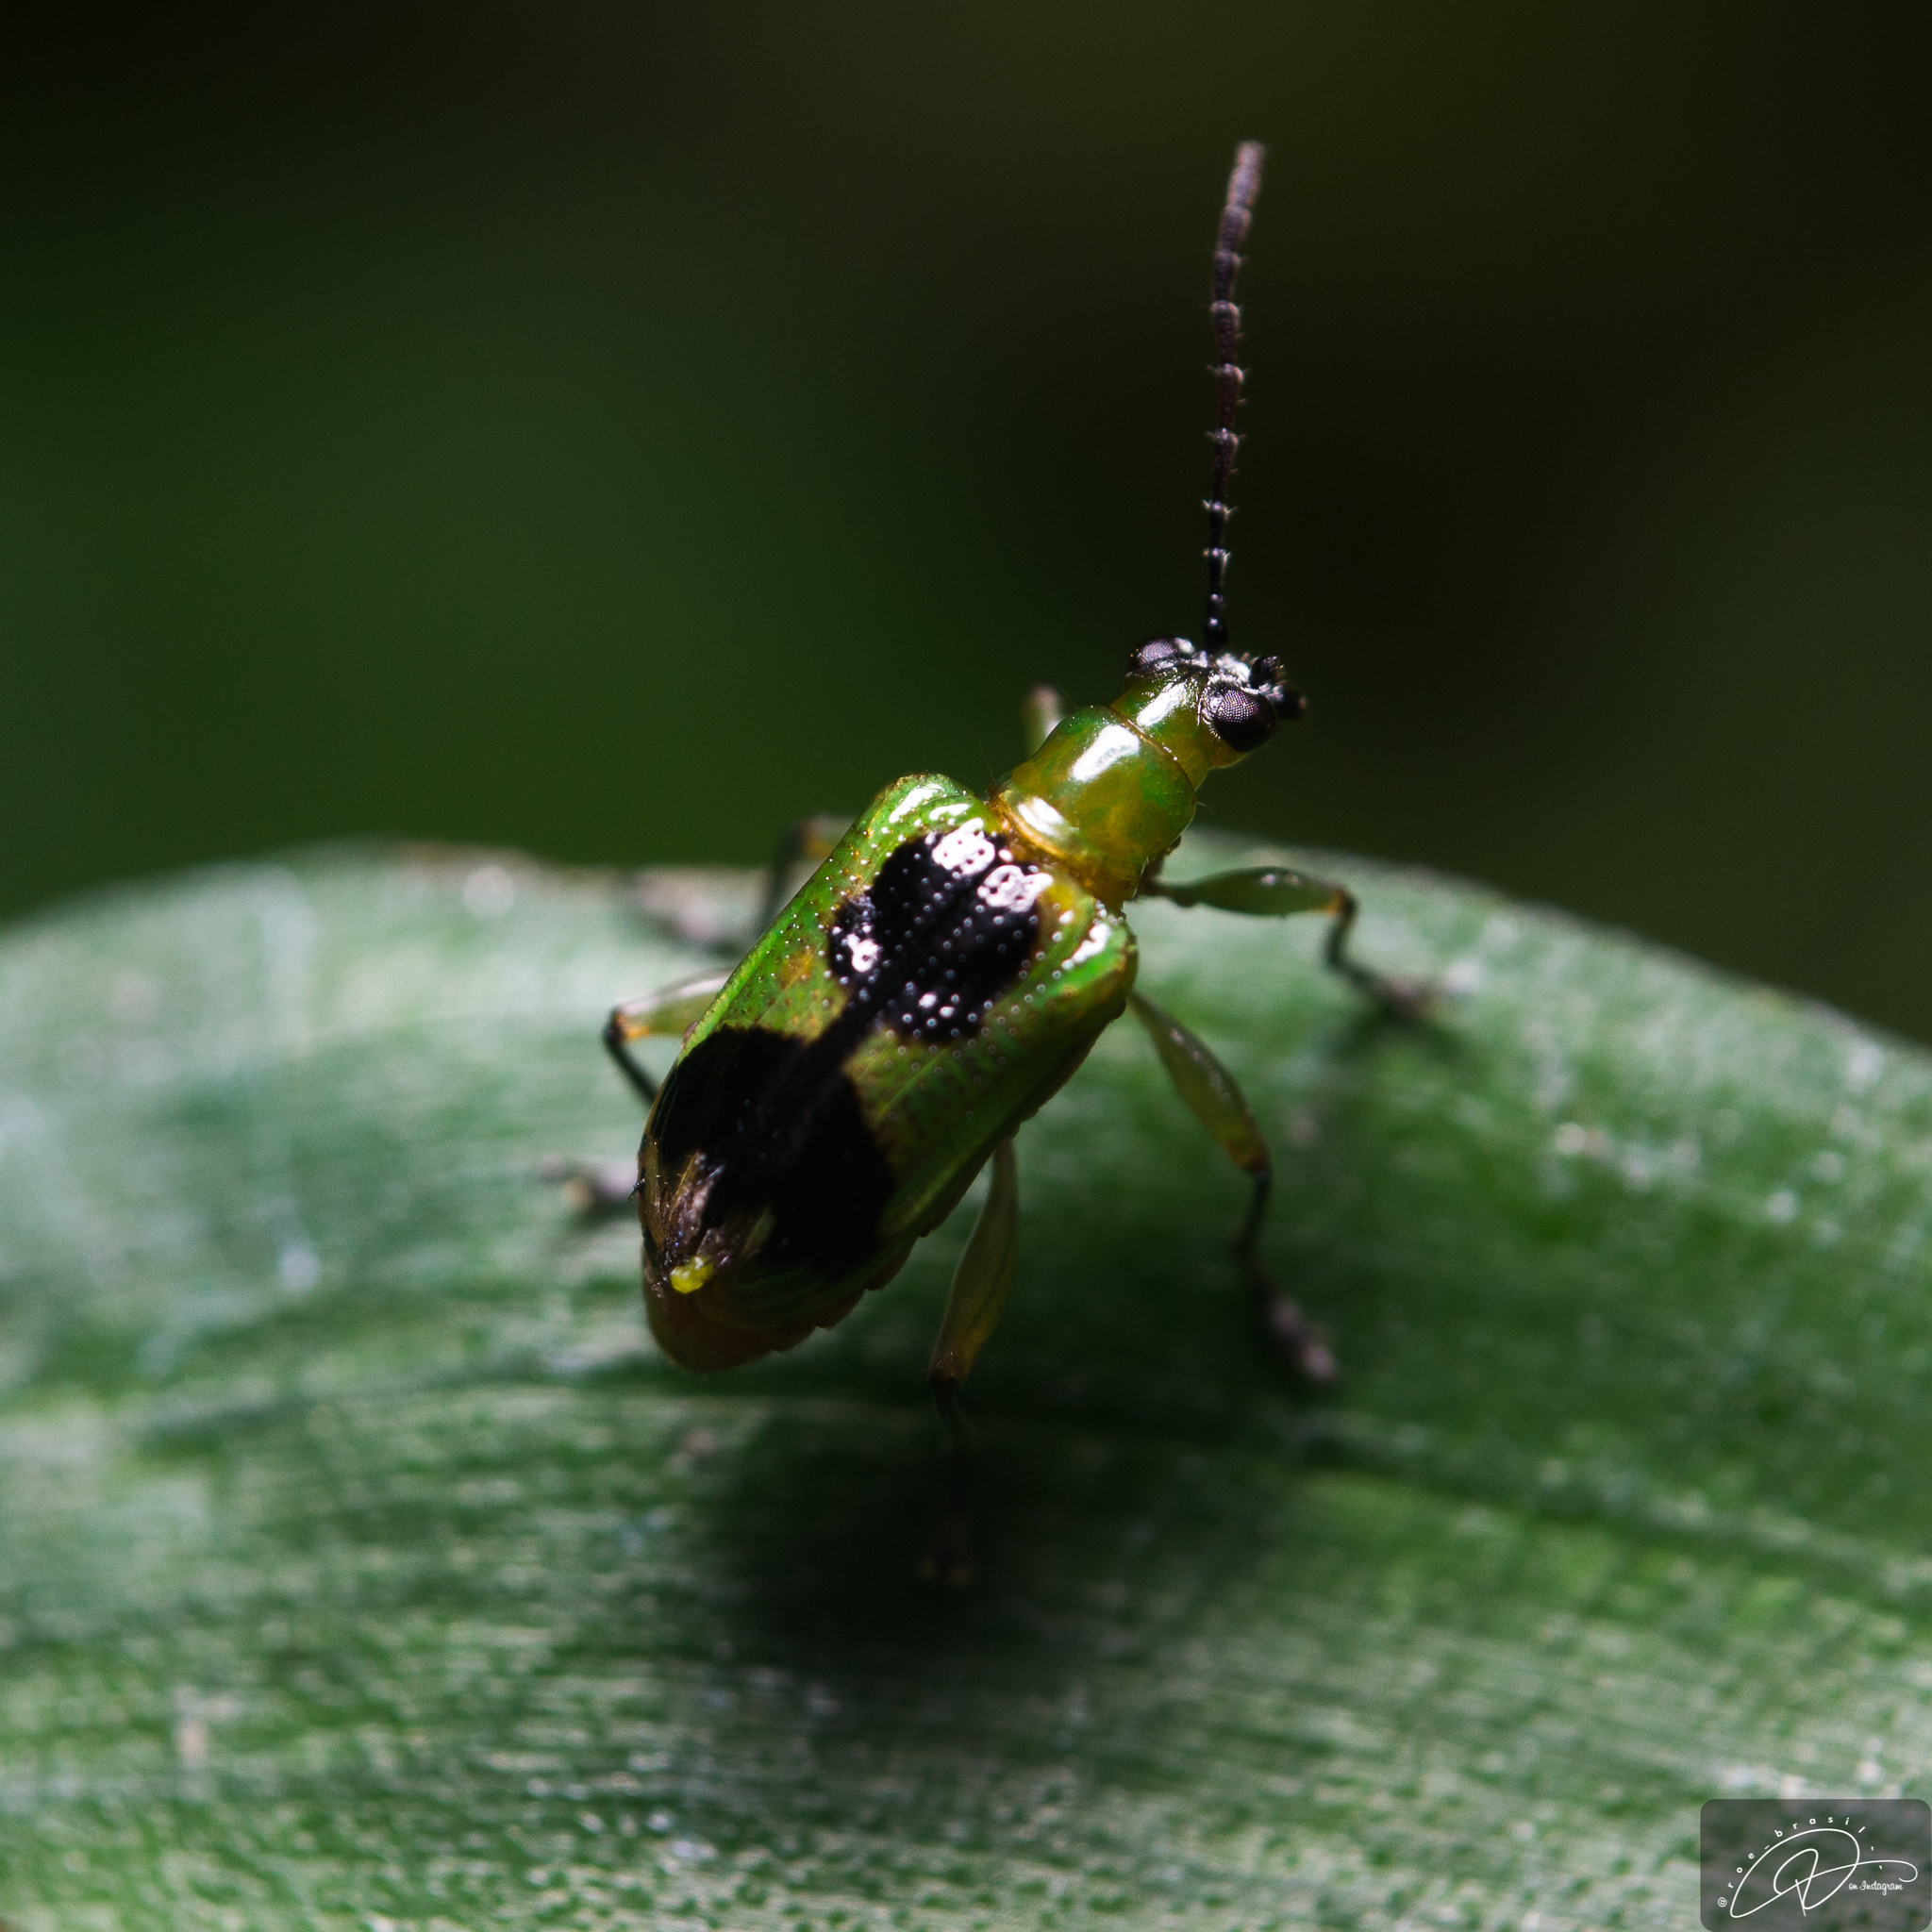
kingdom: Animalia
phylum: Arthropoda
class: Insecta
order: Coleoptera
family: Chrysomelidae
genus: Neolema
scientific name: Neolema
